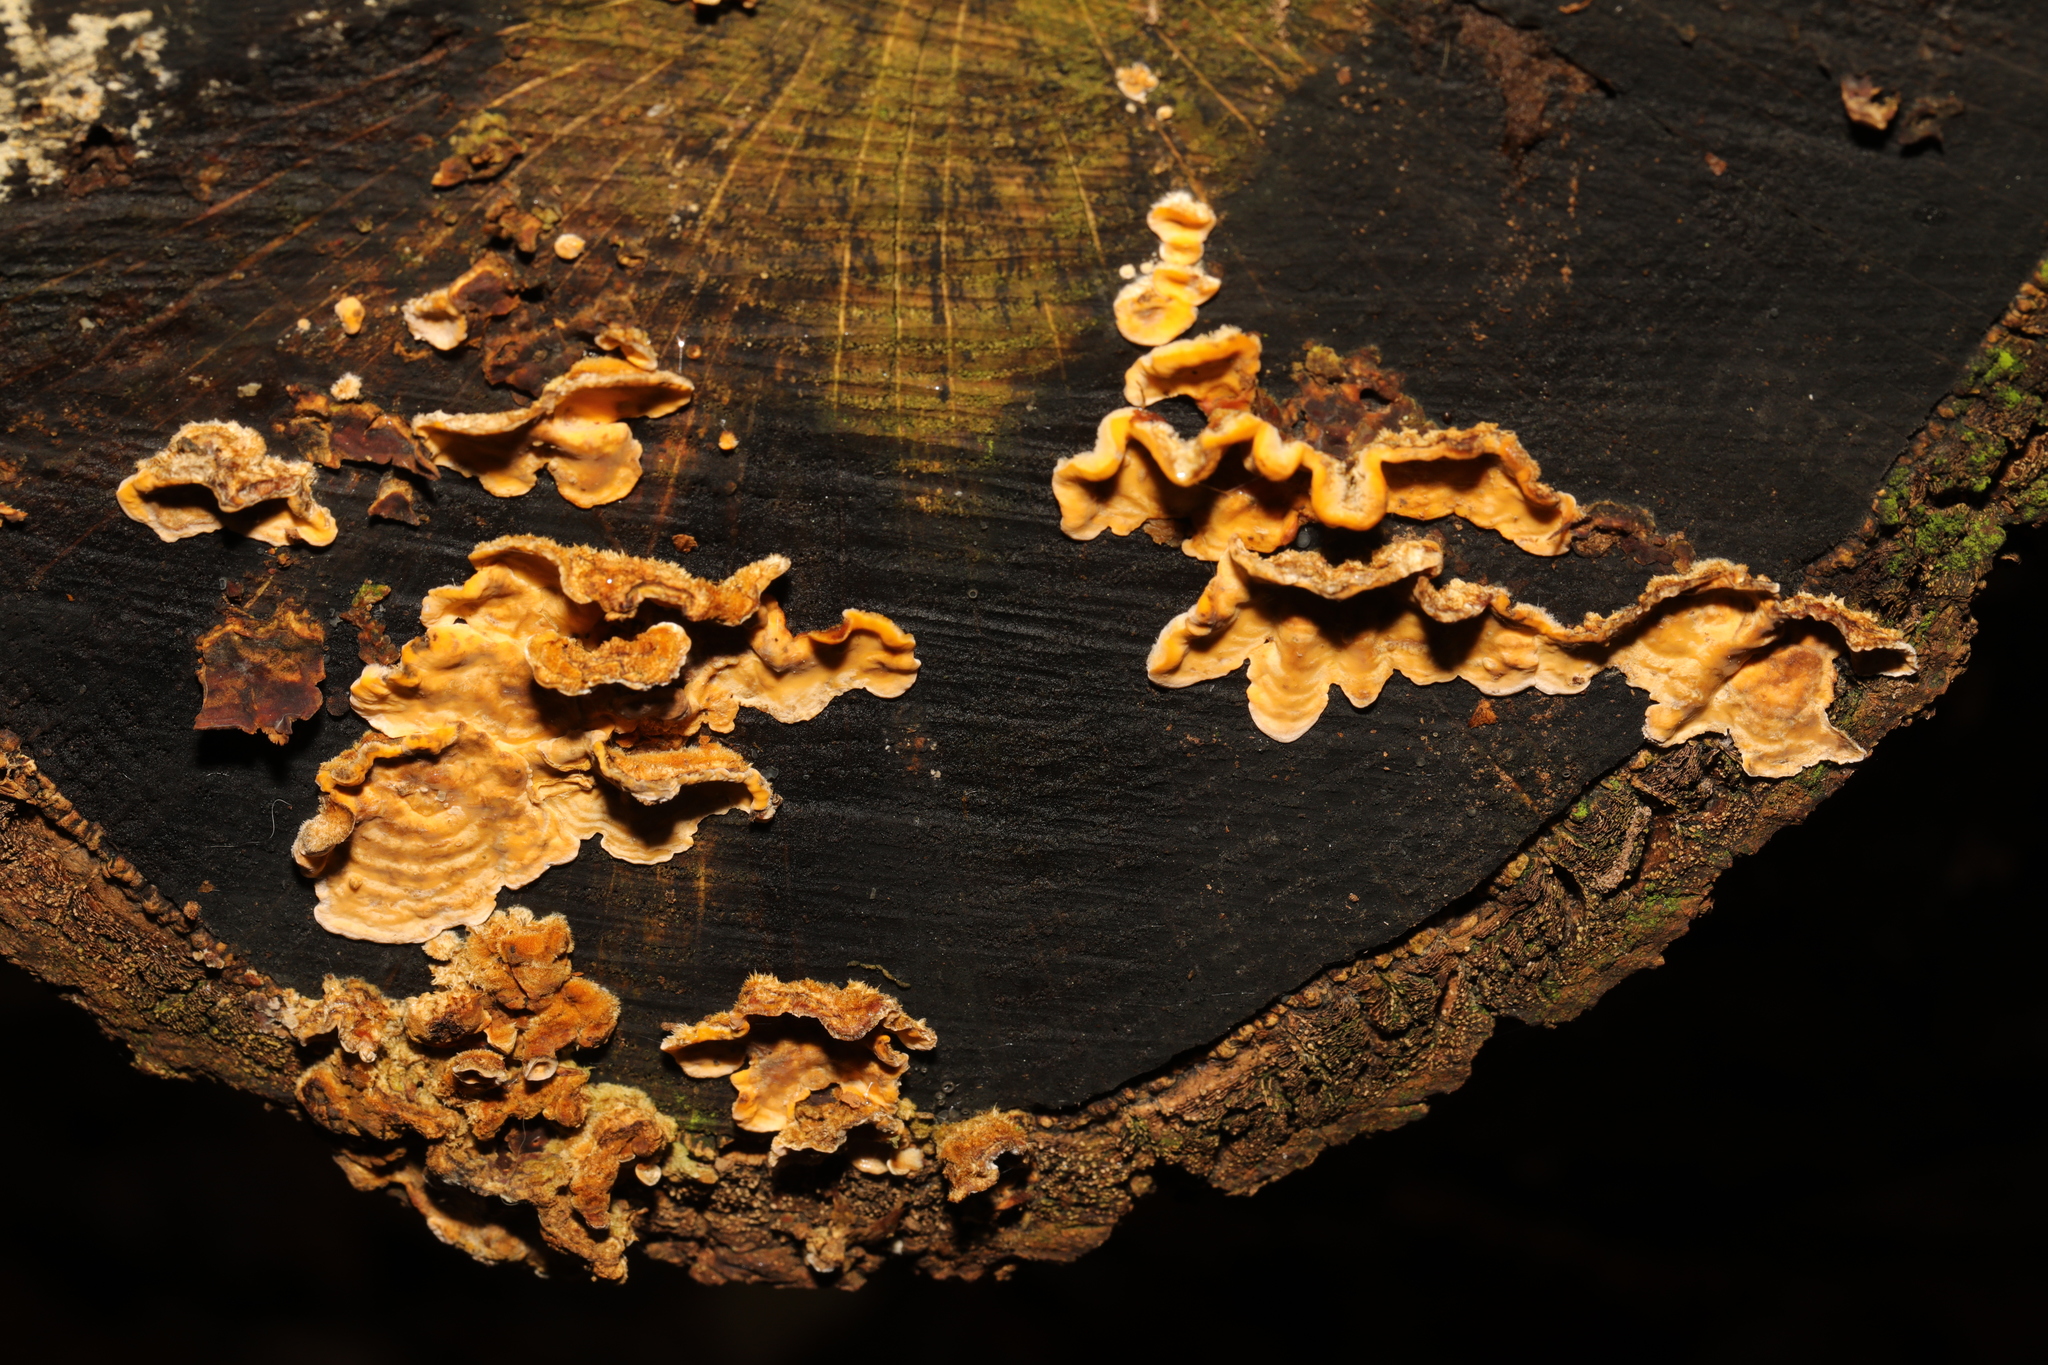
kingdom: Fungi
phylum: Basidiomycota
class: Agaricomycetes
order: Russulales
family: Stereaceae
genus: Stereum
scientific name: Stereum hirsutum
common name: Hairy curtain crust
